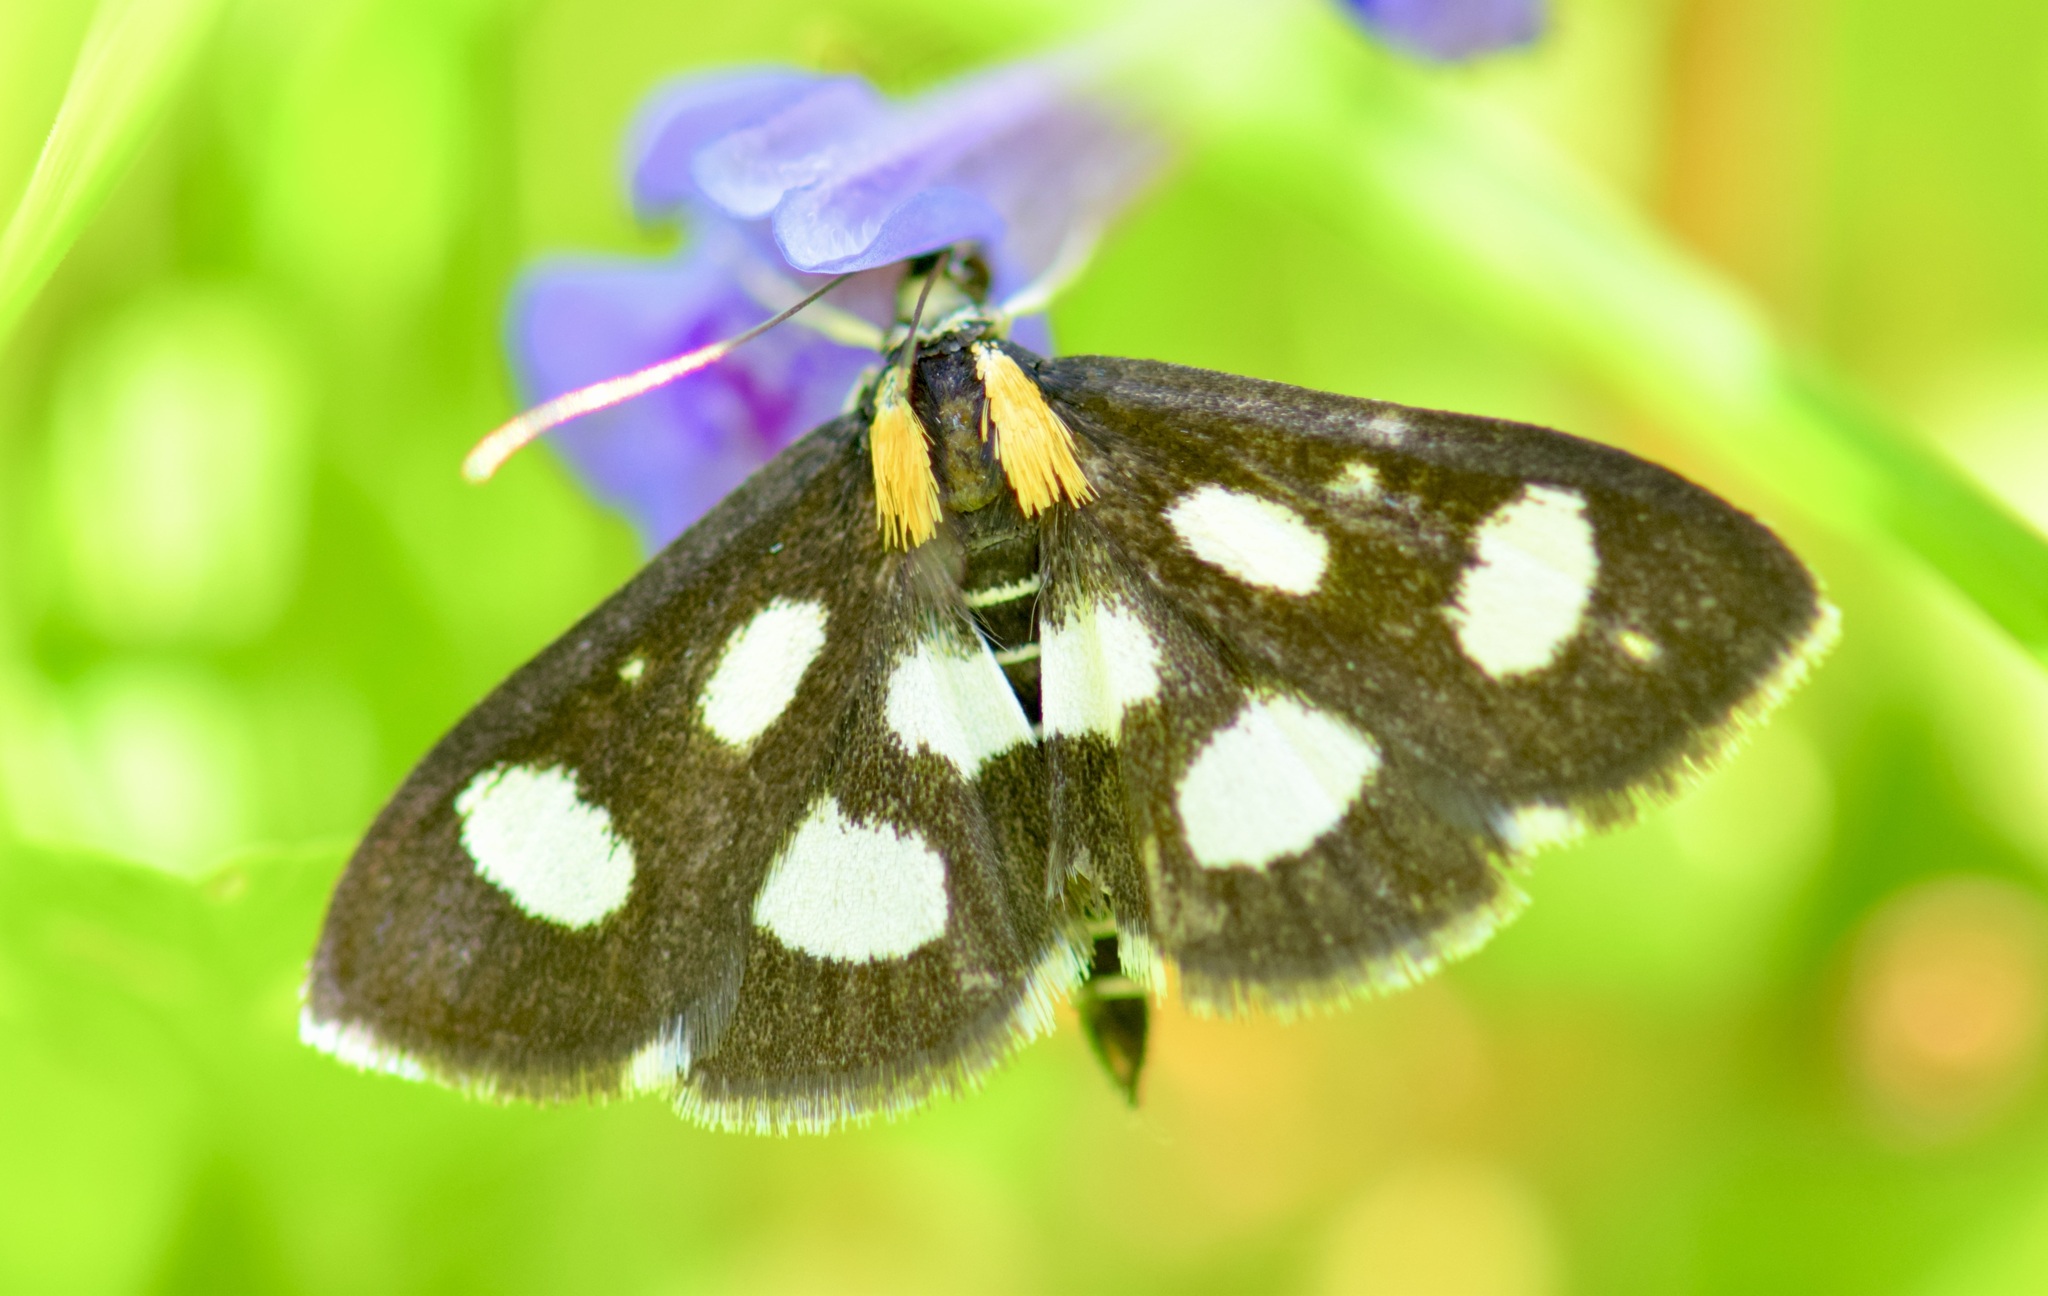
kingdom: Animalia
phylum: Arthropoda
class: Insecta
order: Lepidoptera
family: Crambidae
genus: Anania
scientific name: Anania funebris
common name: White-spotted sable moth
